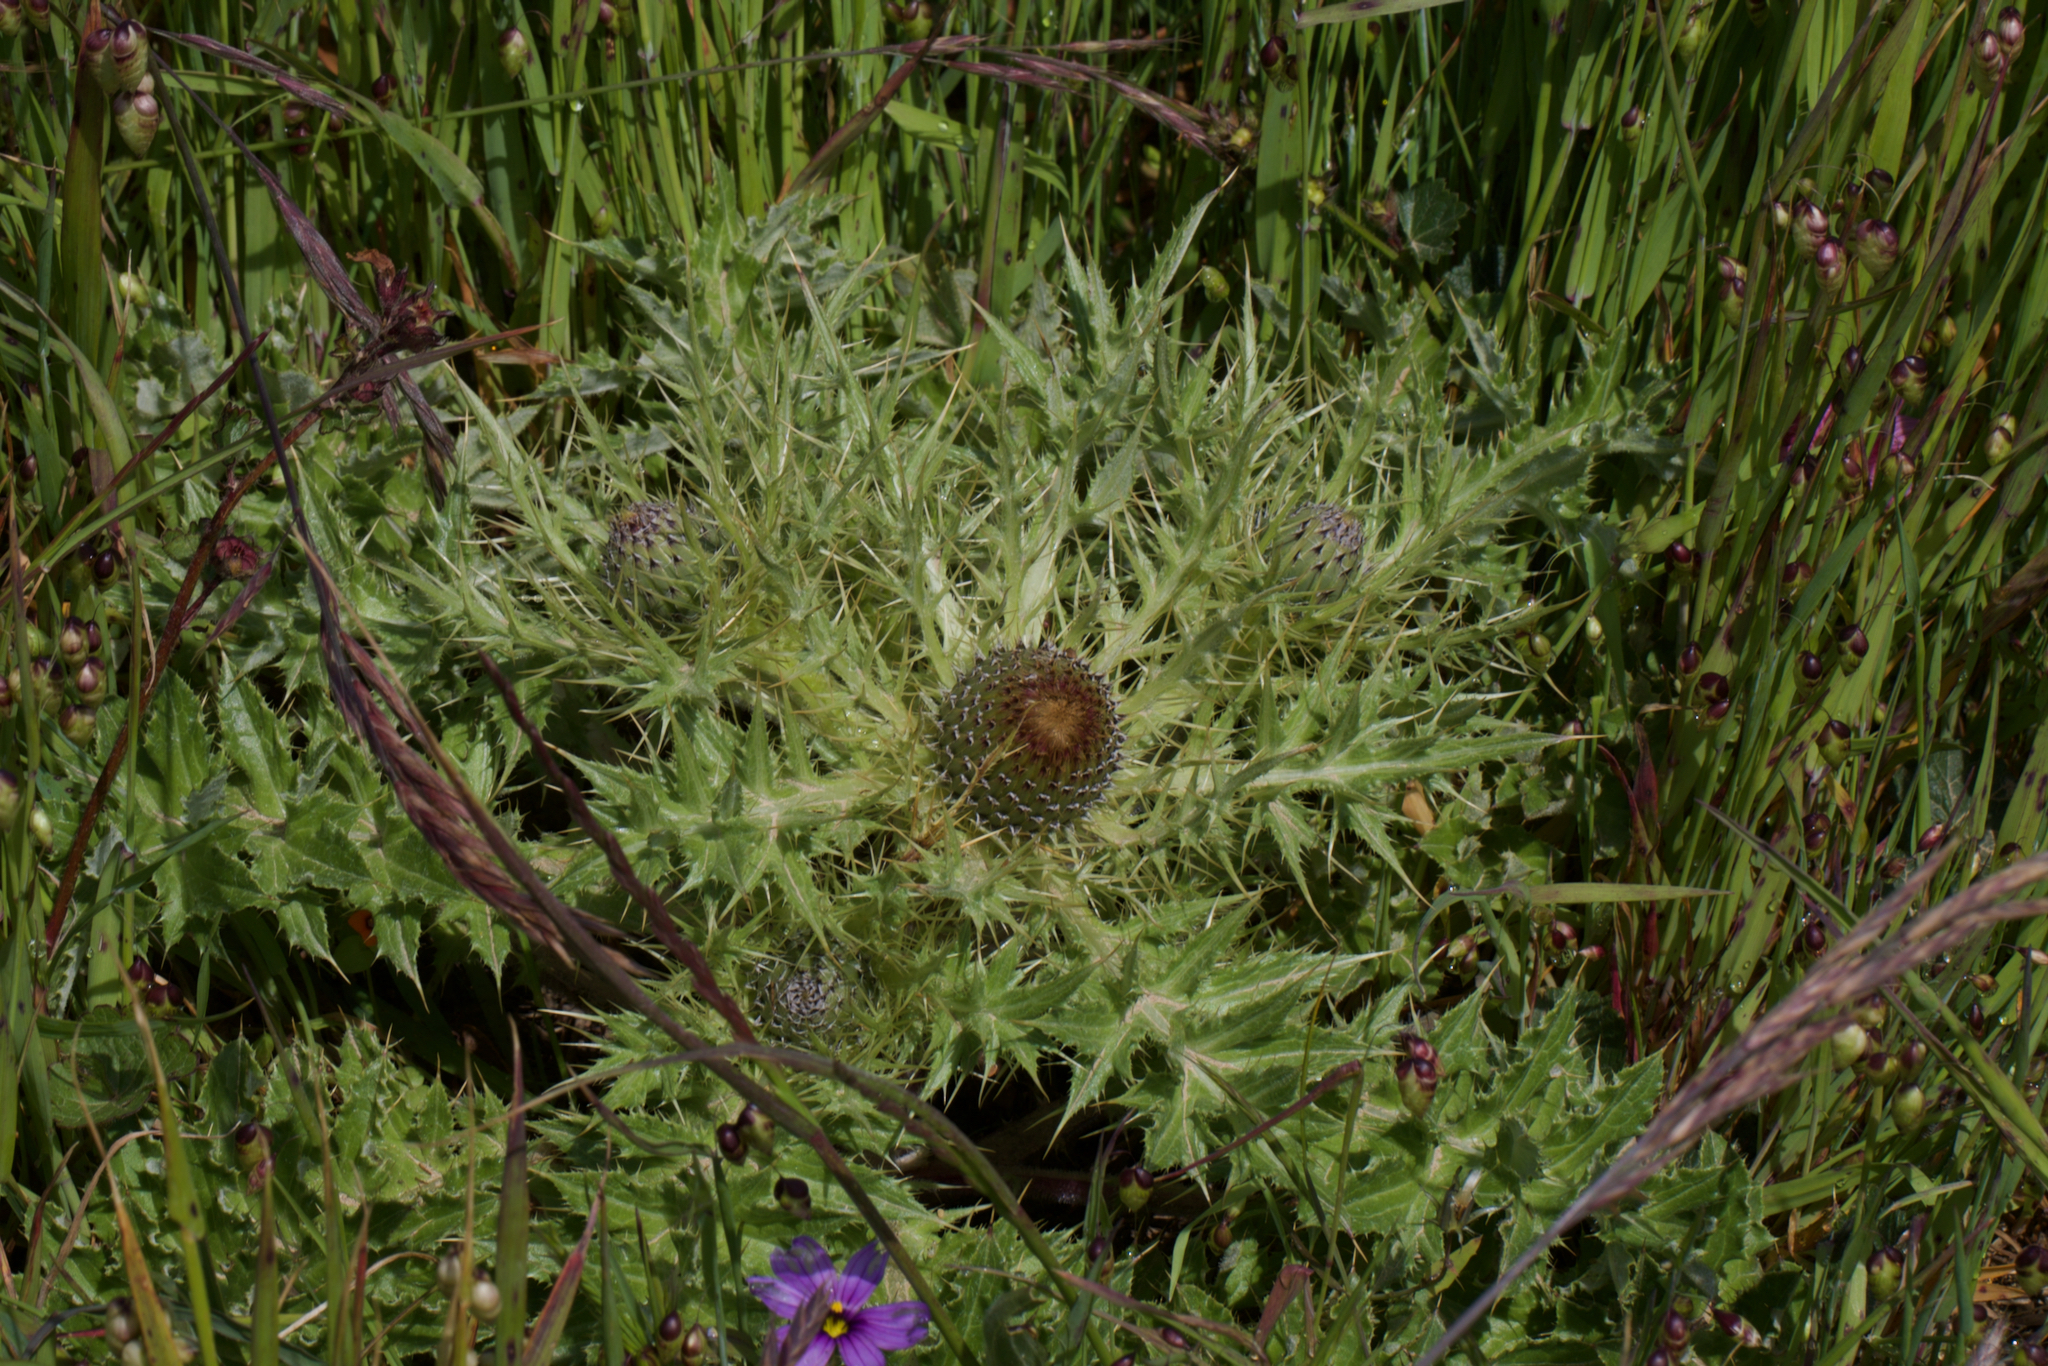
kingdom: Plantae
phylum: Tracheophyta
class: Magnoliopsida
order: Asterales
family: Asteraceae
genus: Cirsium
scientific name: Cirsium quercetorum
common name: Alameda county thistle
